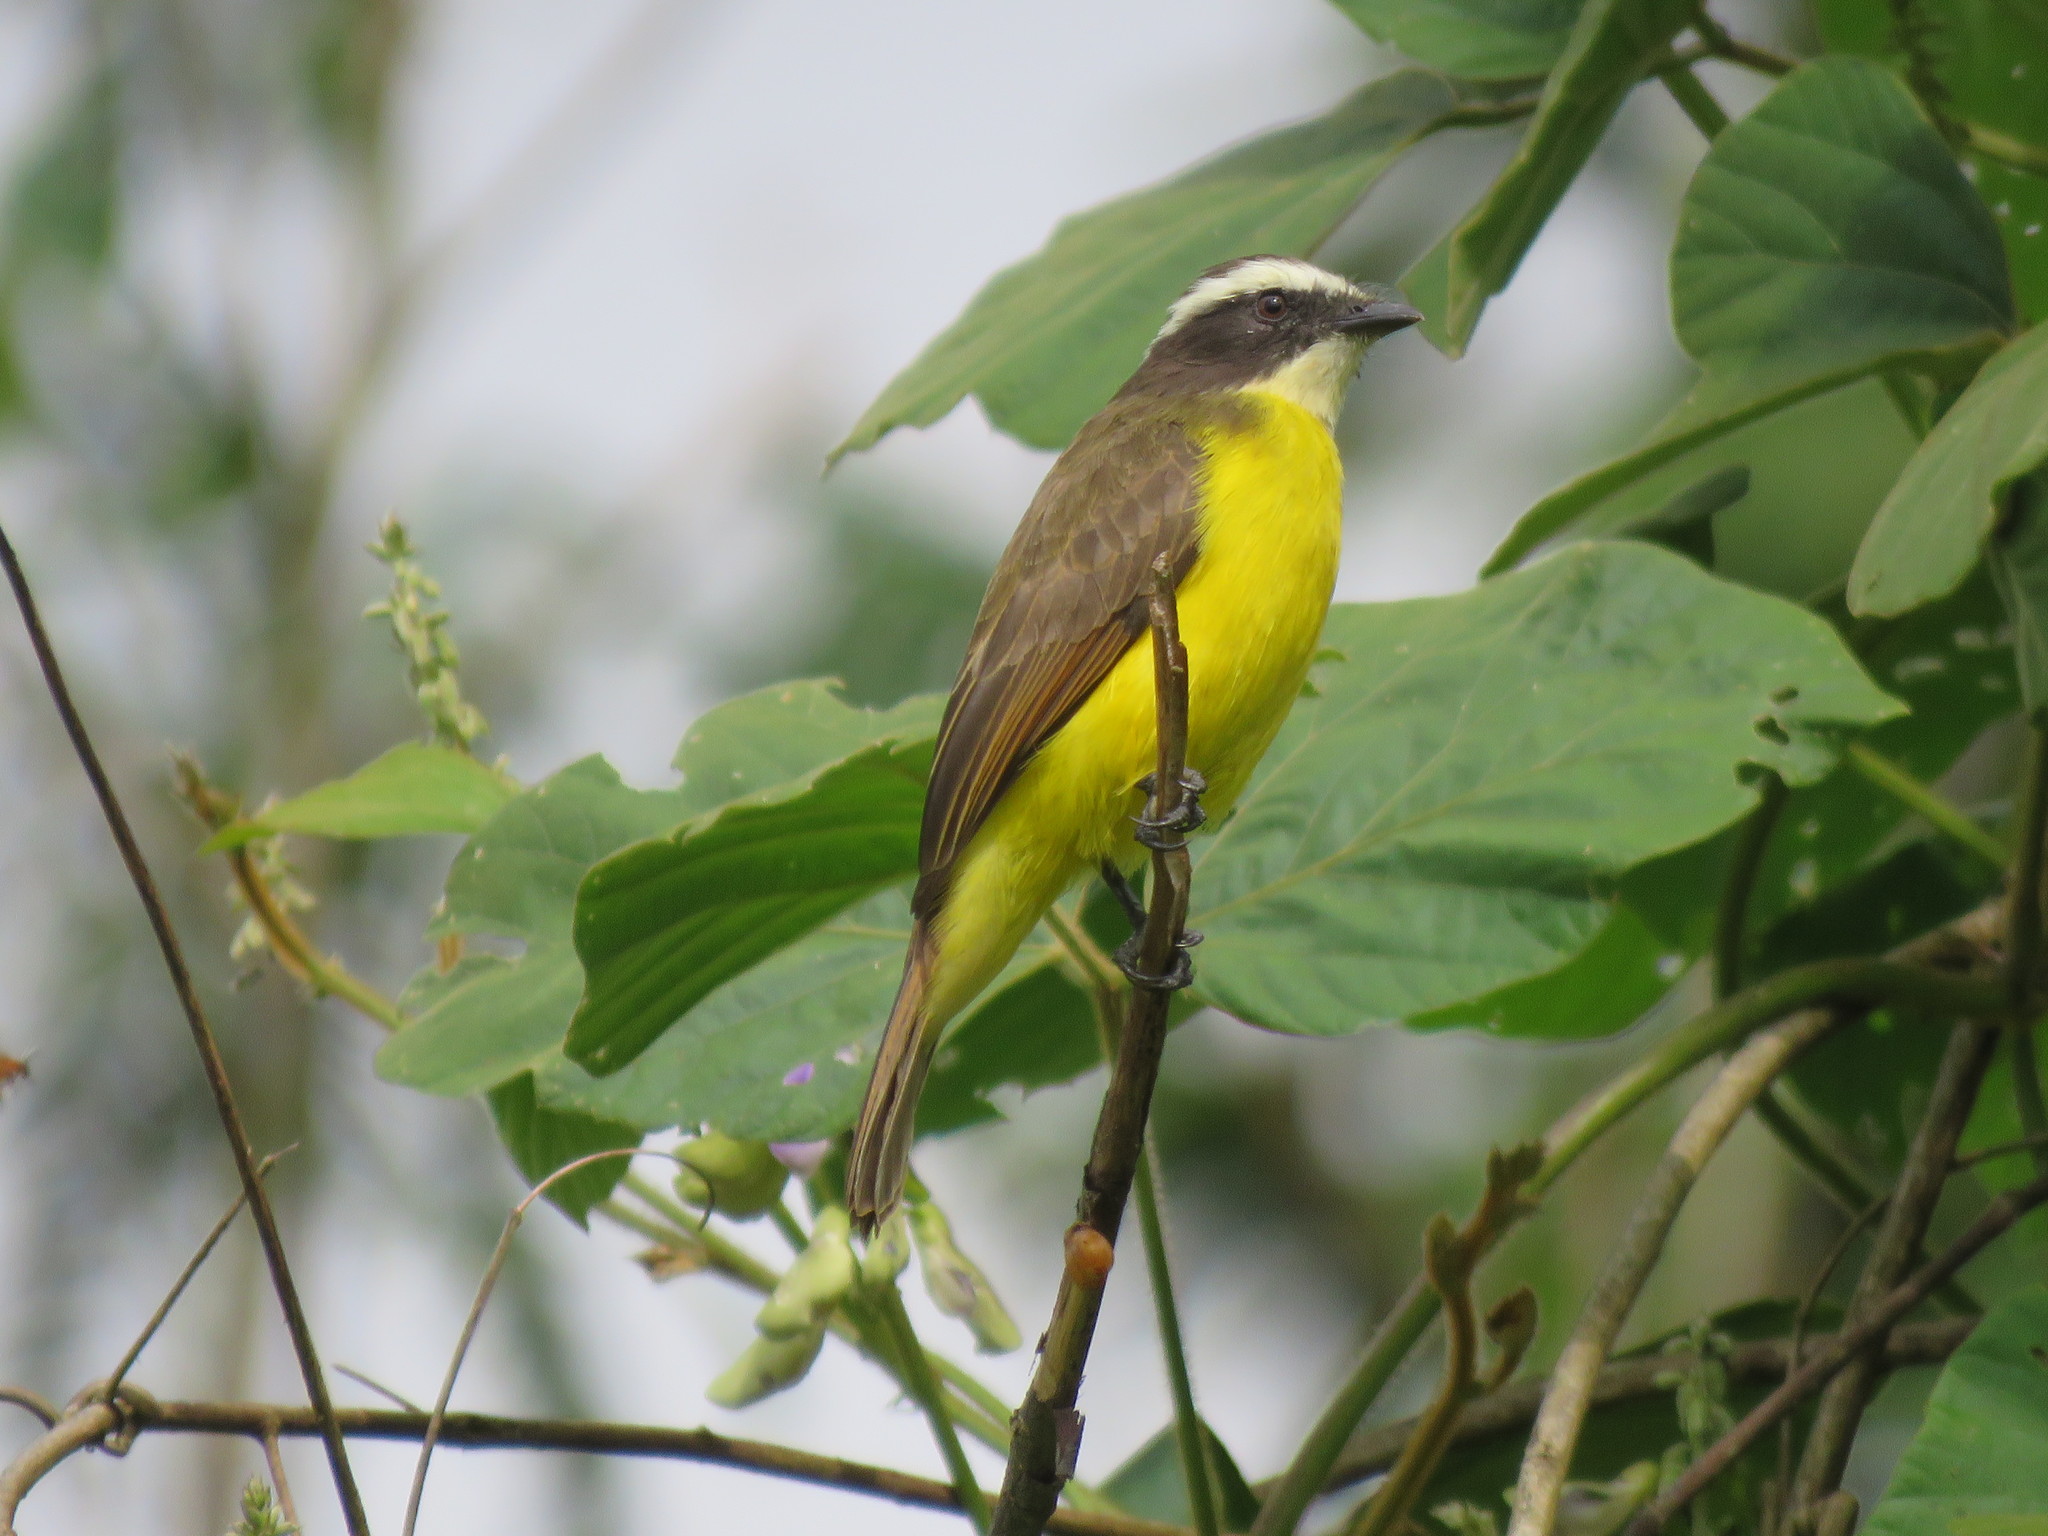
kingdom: Animalia
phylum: Chordata
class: Aves
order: Passeriformes
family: Tyrannidae
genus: Myiozetetes
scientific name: Myiozetetes cayanensis
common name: Rusty-margined flycatcher
